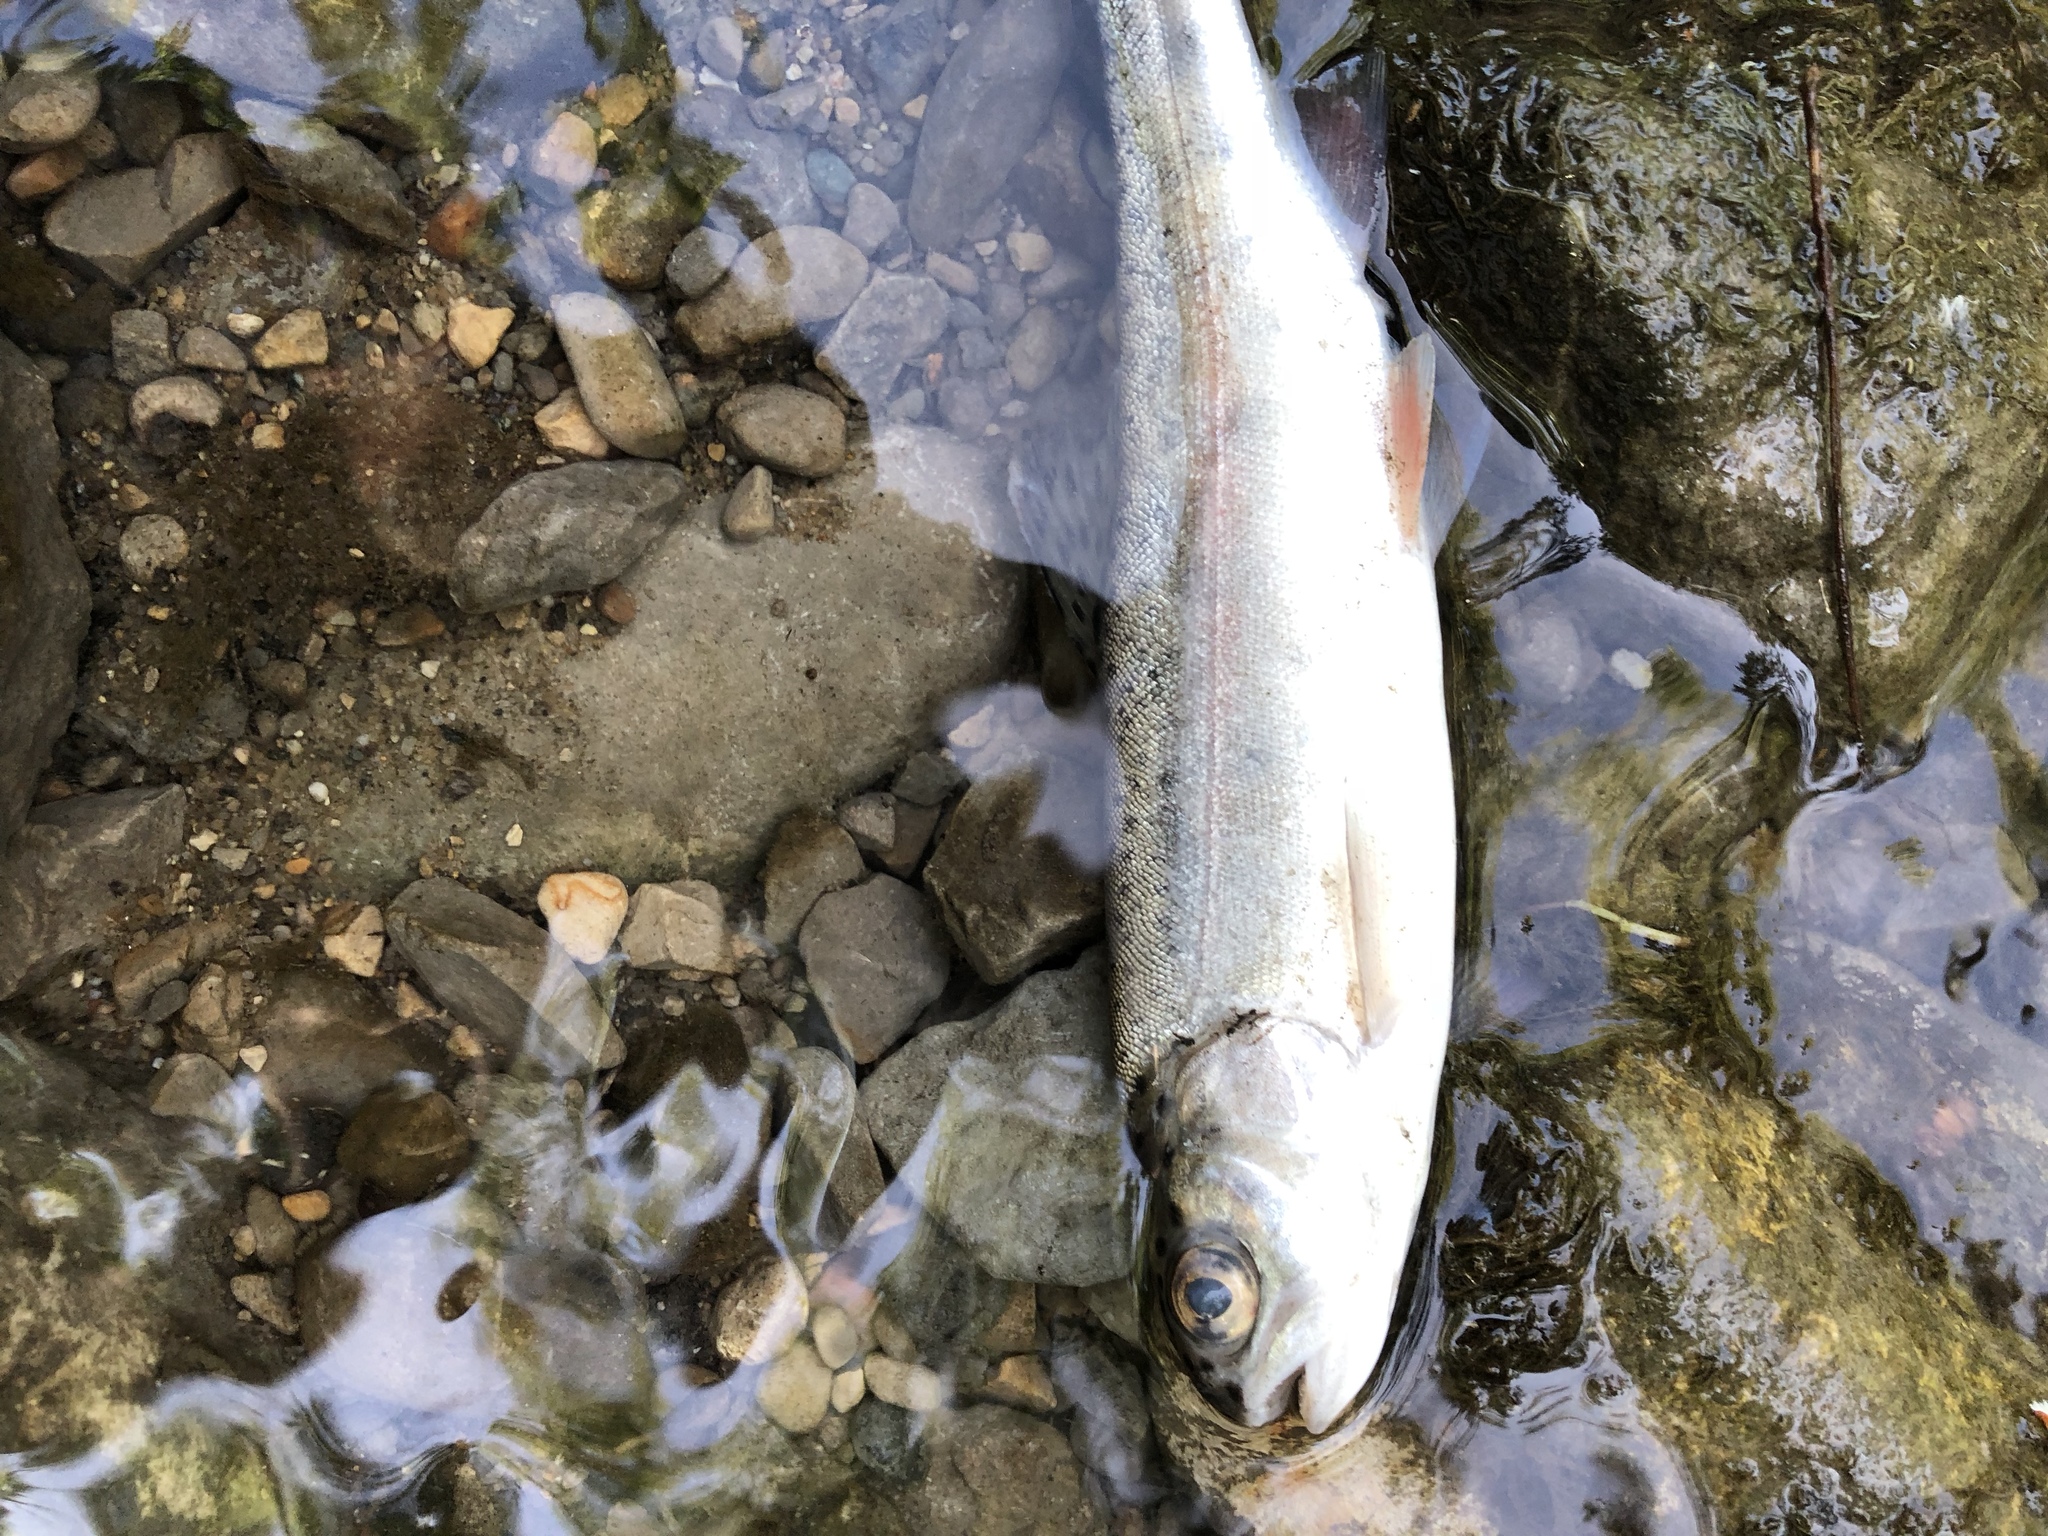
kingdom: Animalia
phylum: Chordata
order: Salmoniformes
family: Salmonidae
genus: Oncorhynchus
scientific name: Oncorhynchus mykiss
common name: Rainbow trout
